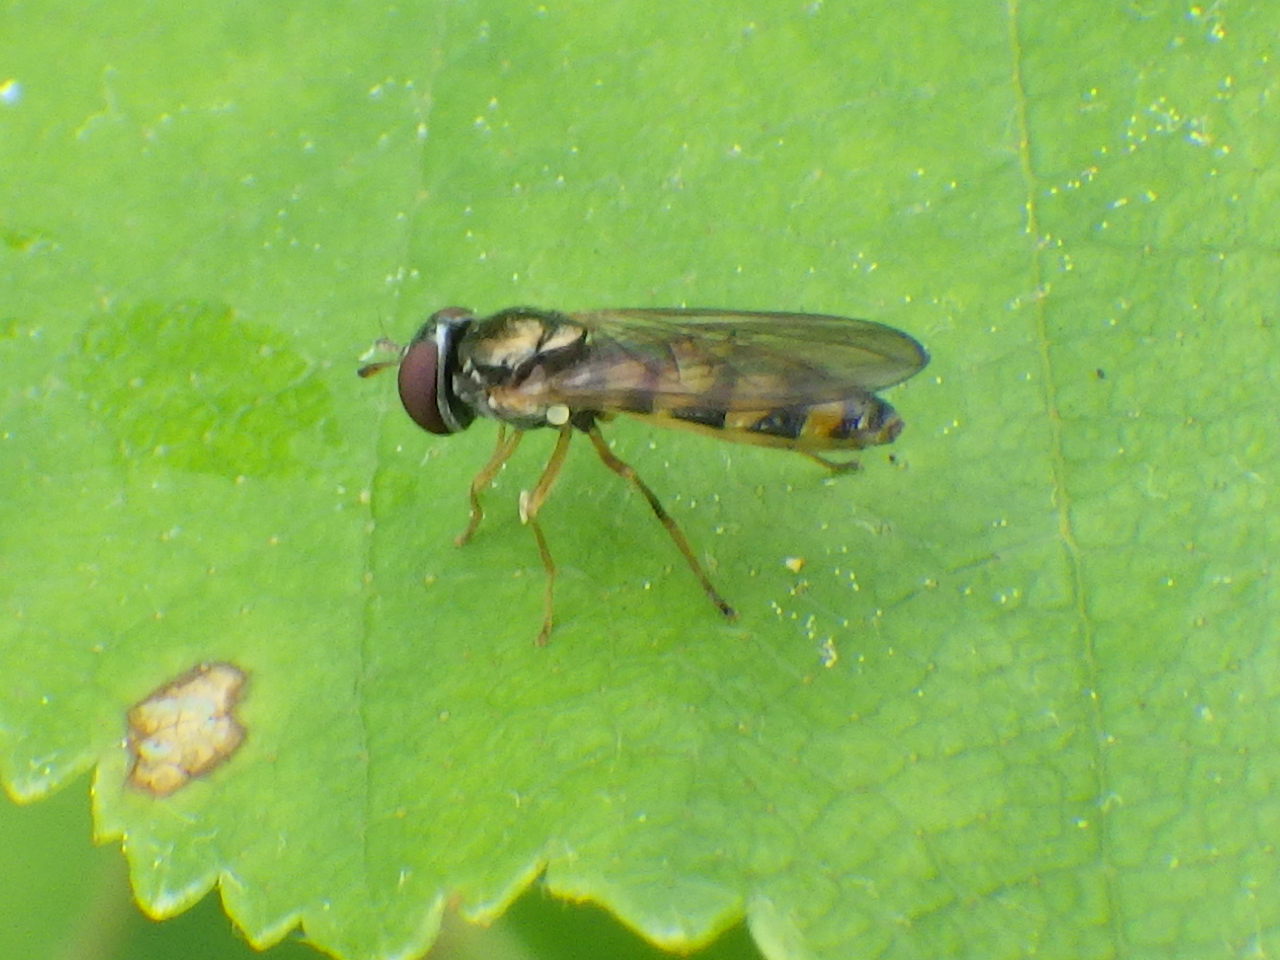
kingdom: Animalia
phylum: Arthropoda
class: Insecta
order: Diptera
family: Syrphidae
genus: Melanostoma
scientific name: Melanostoma mellina
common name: Hover fly
